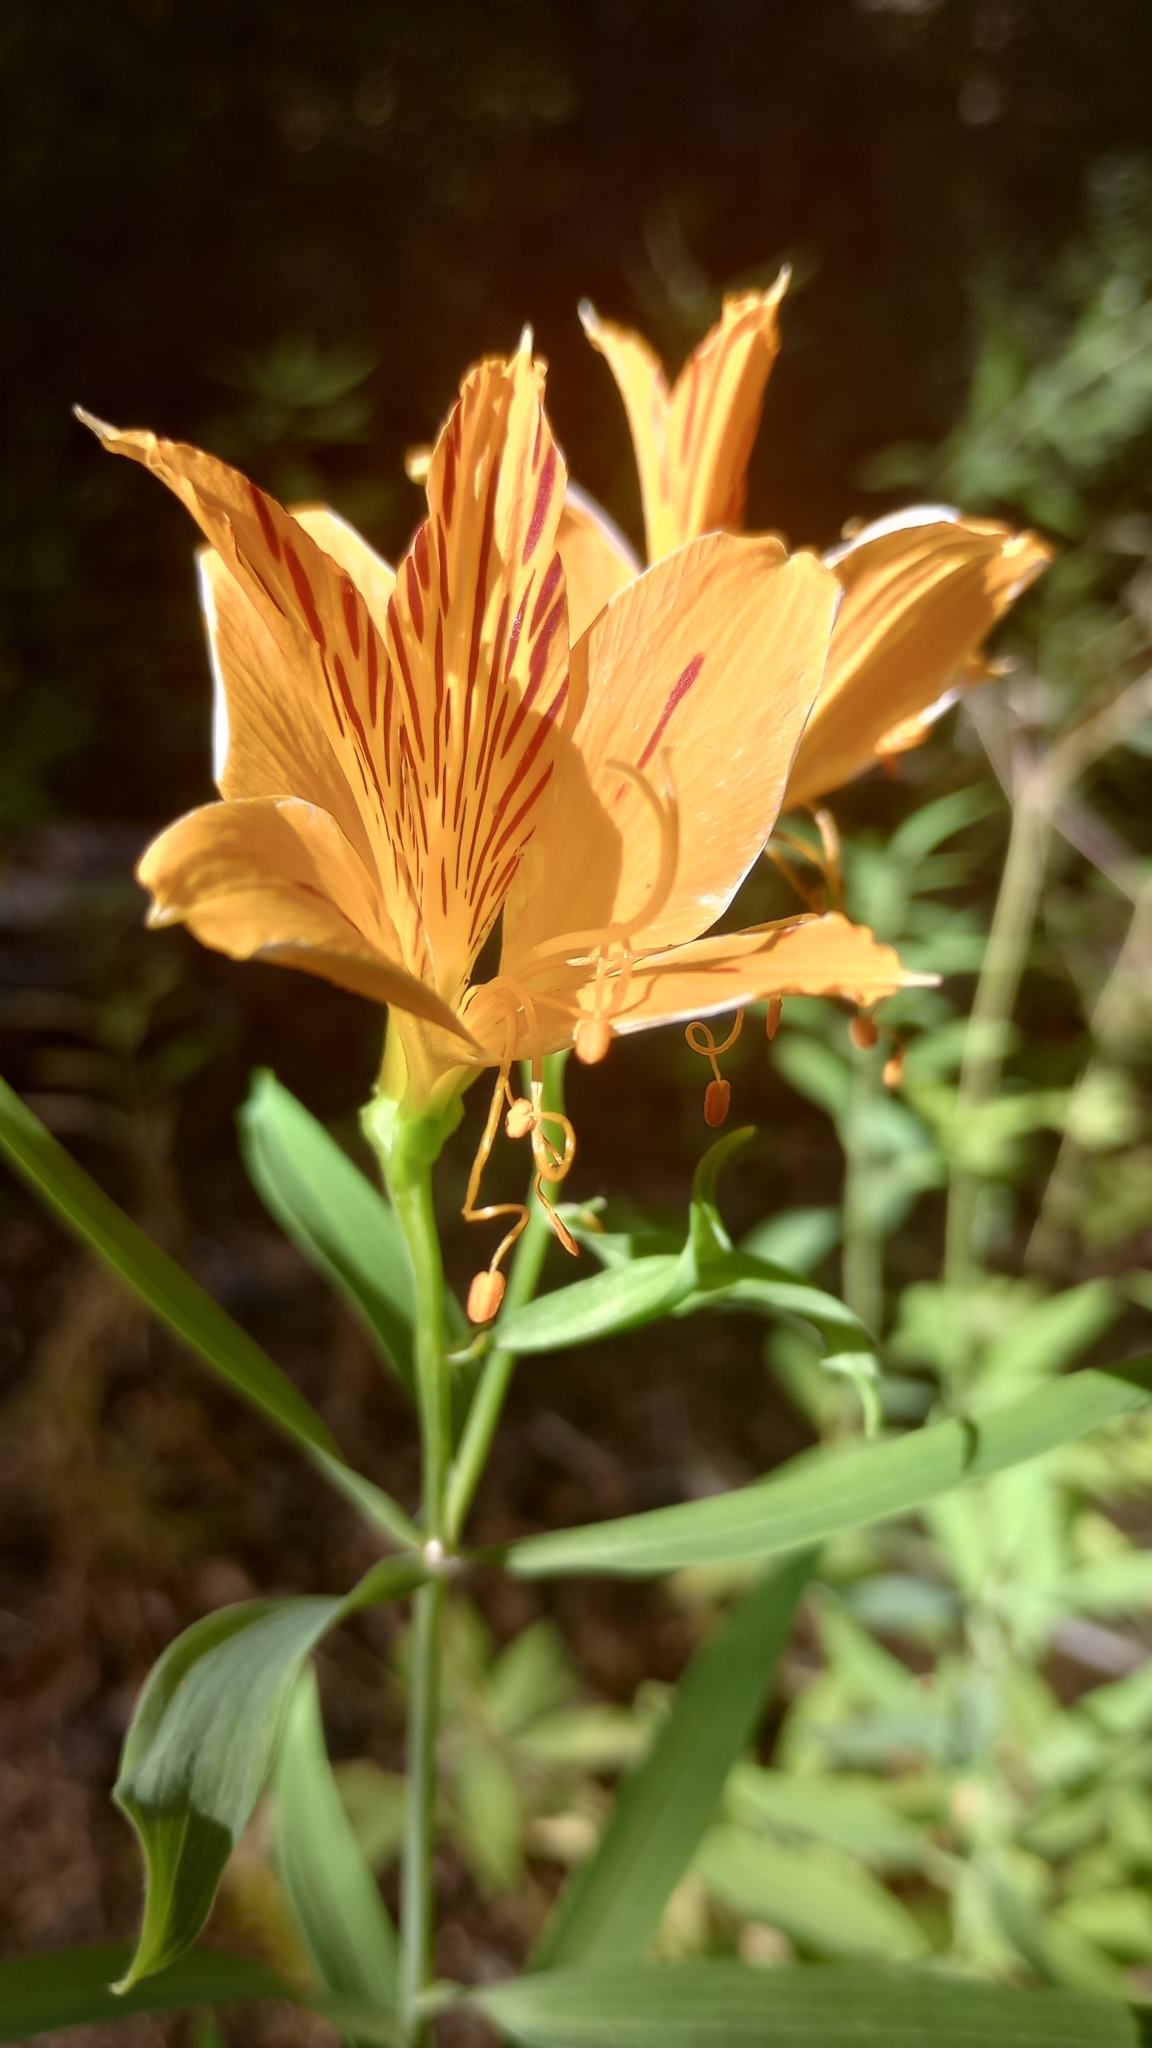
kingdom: Plantae
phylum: Tracheophyta
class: Liliopsida
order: Liliales
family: Alstroemeriaceae
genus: Alstroemeria
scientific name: Alstroemeria aurea
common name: Peruvian lily
